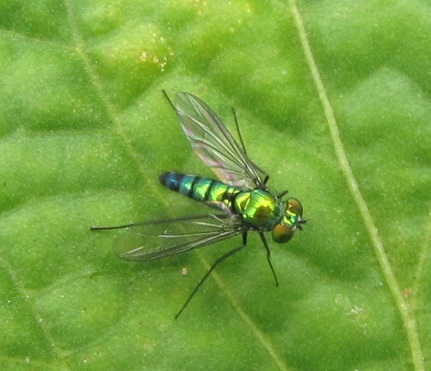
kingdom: Animalia
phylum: Arthropoda
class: Insecta
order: Diptera
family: Dolichopodidae
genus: Condylostylus
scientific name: Condylostylus longicornis
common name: Long-legged fly
